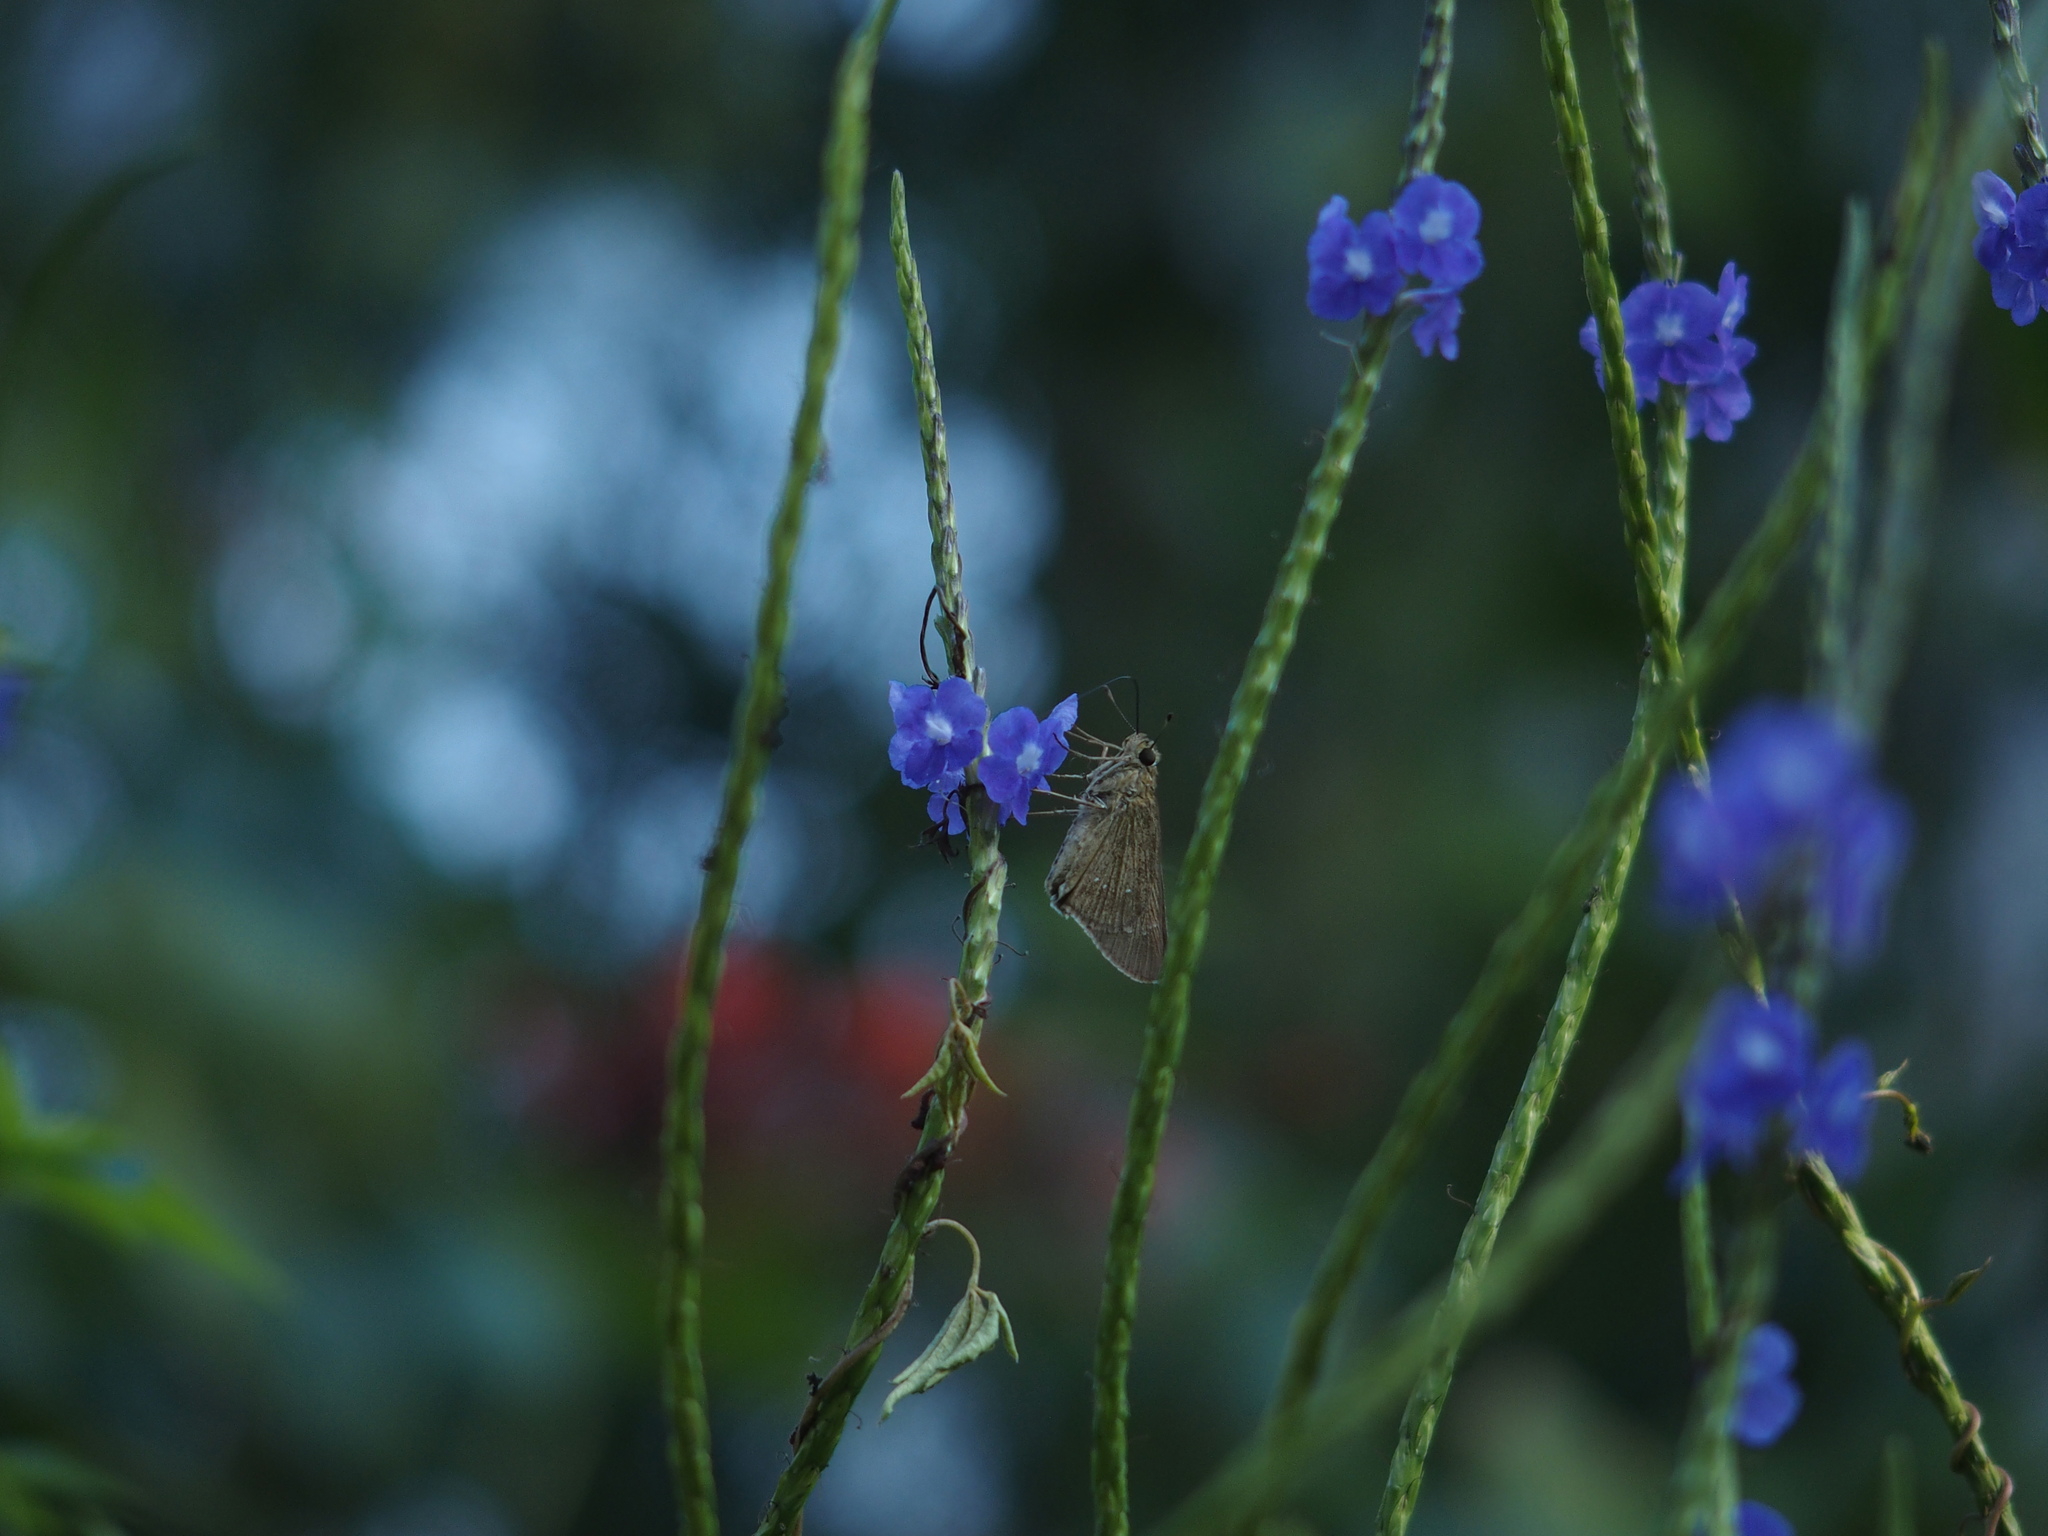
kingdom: Animalia
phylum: Arthropoda
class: Insecta
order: Lepidoptera
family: Hesperiidae
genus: Borbo
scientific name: Borbo cinnara
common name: Formosan swift
